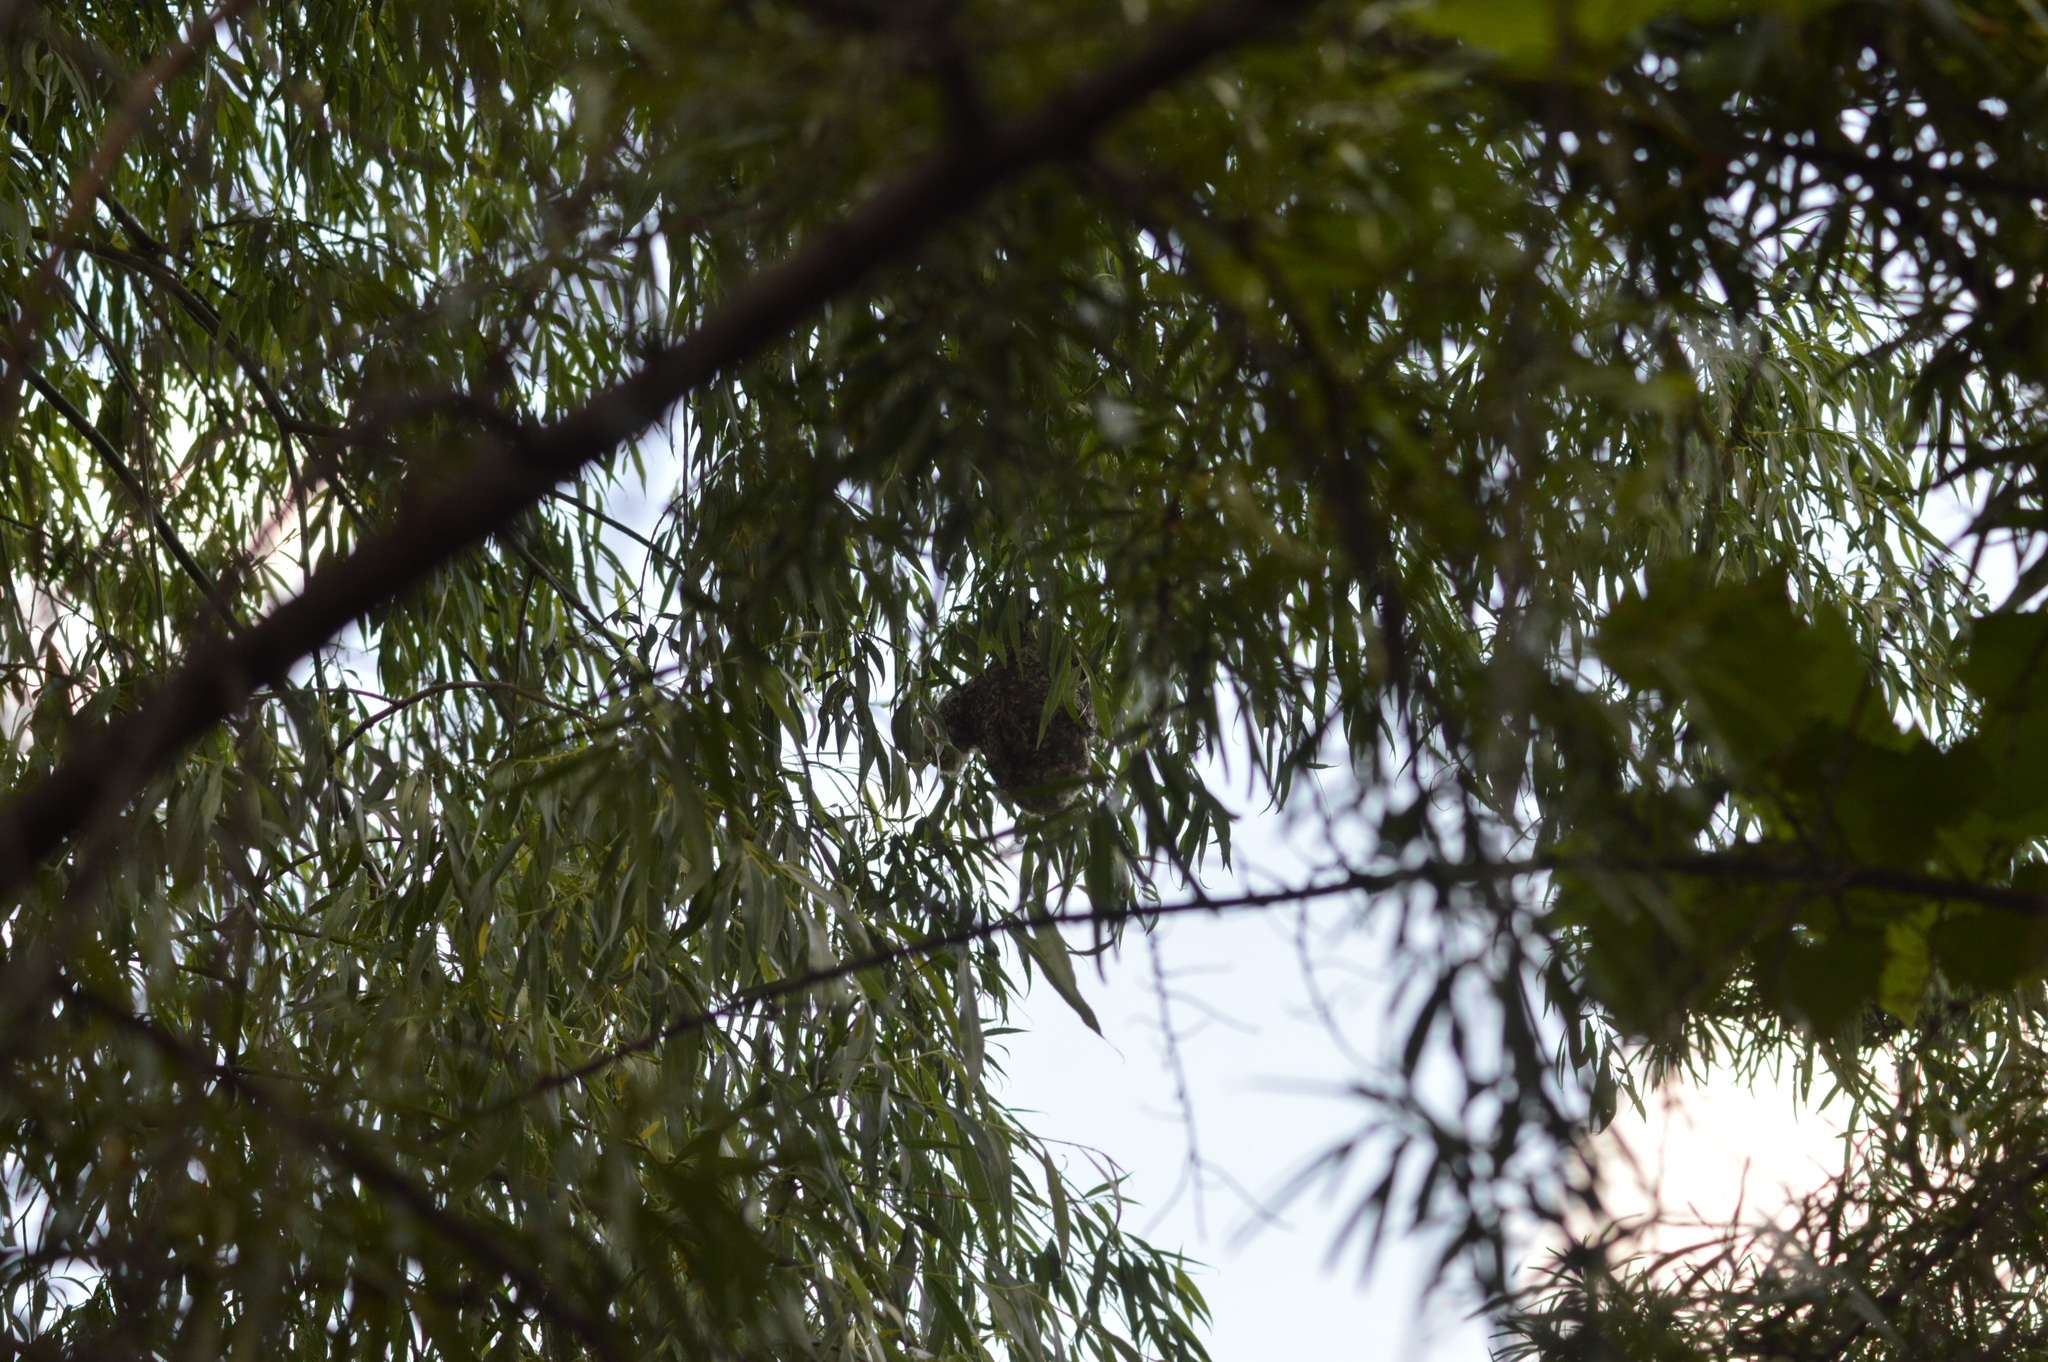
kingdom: Animalia
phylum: Chordata
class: Aves
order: Passeriformes
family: Remizidae
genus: Remiz
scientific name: Remiz pendulinus
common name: Eurasian penduline tit
